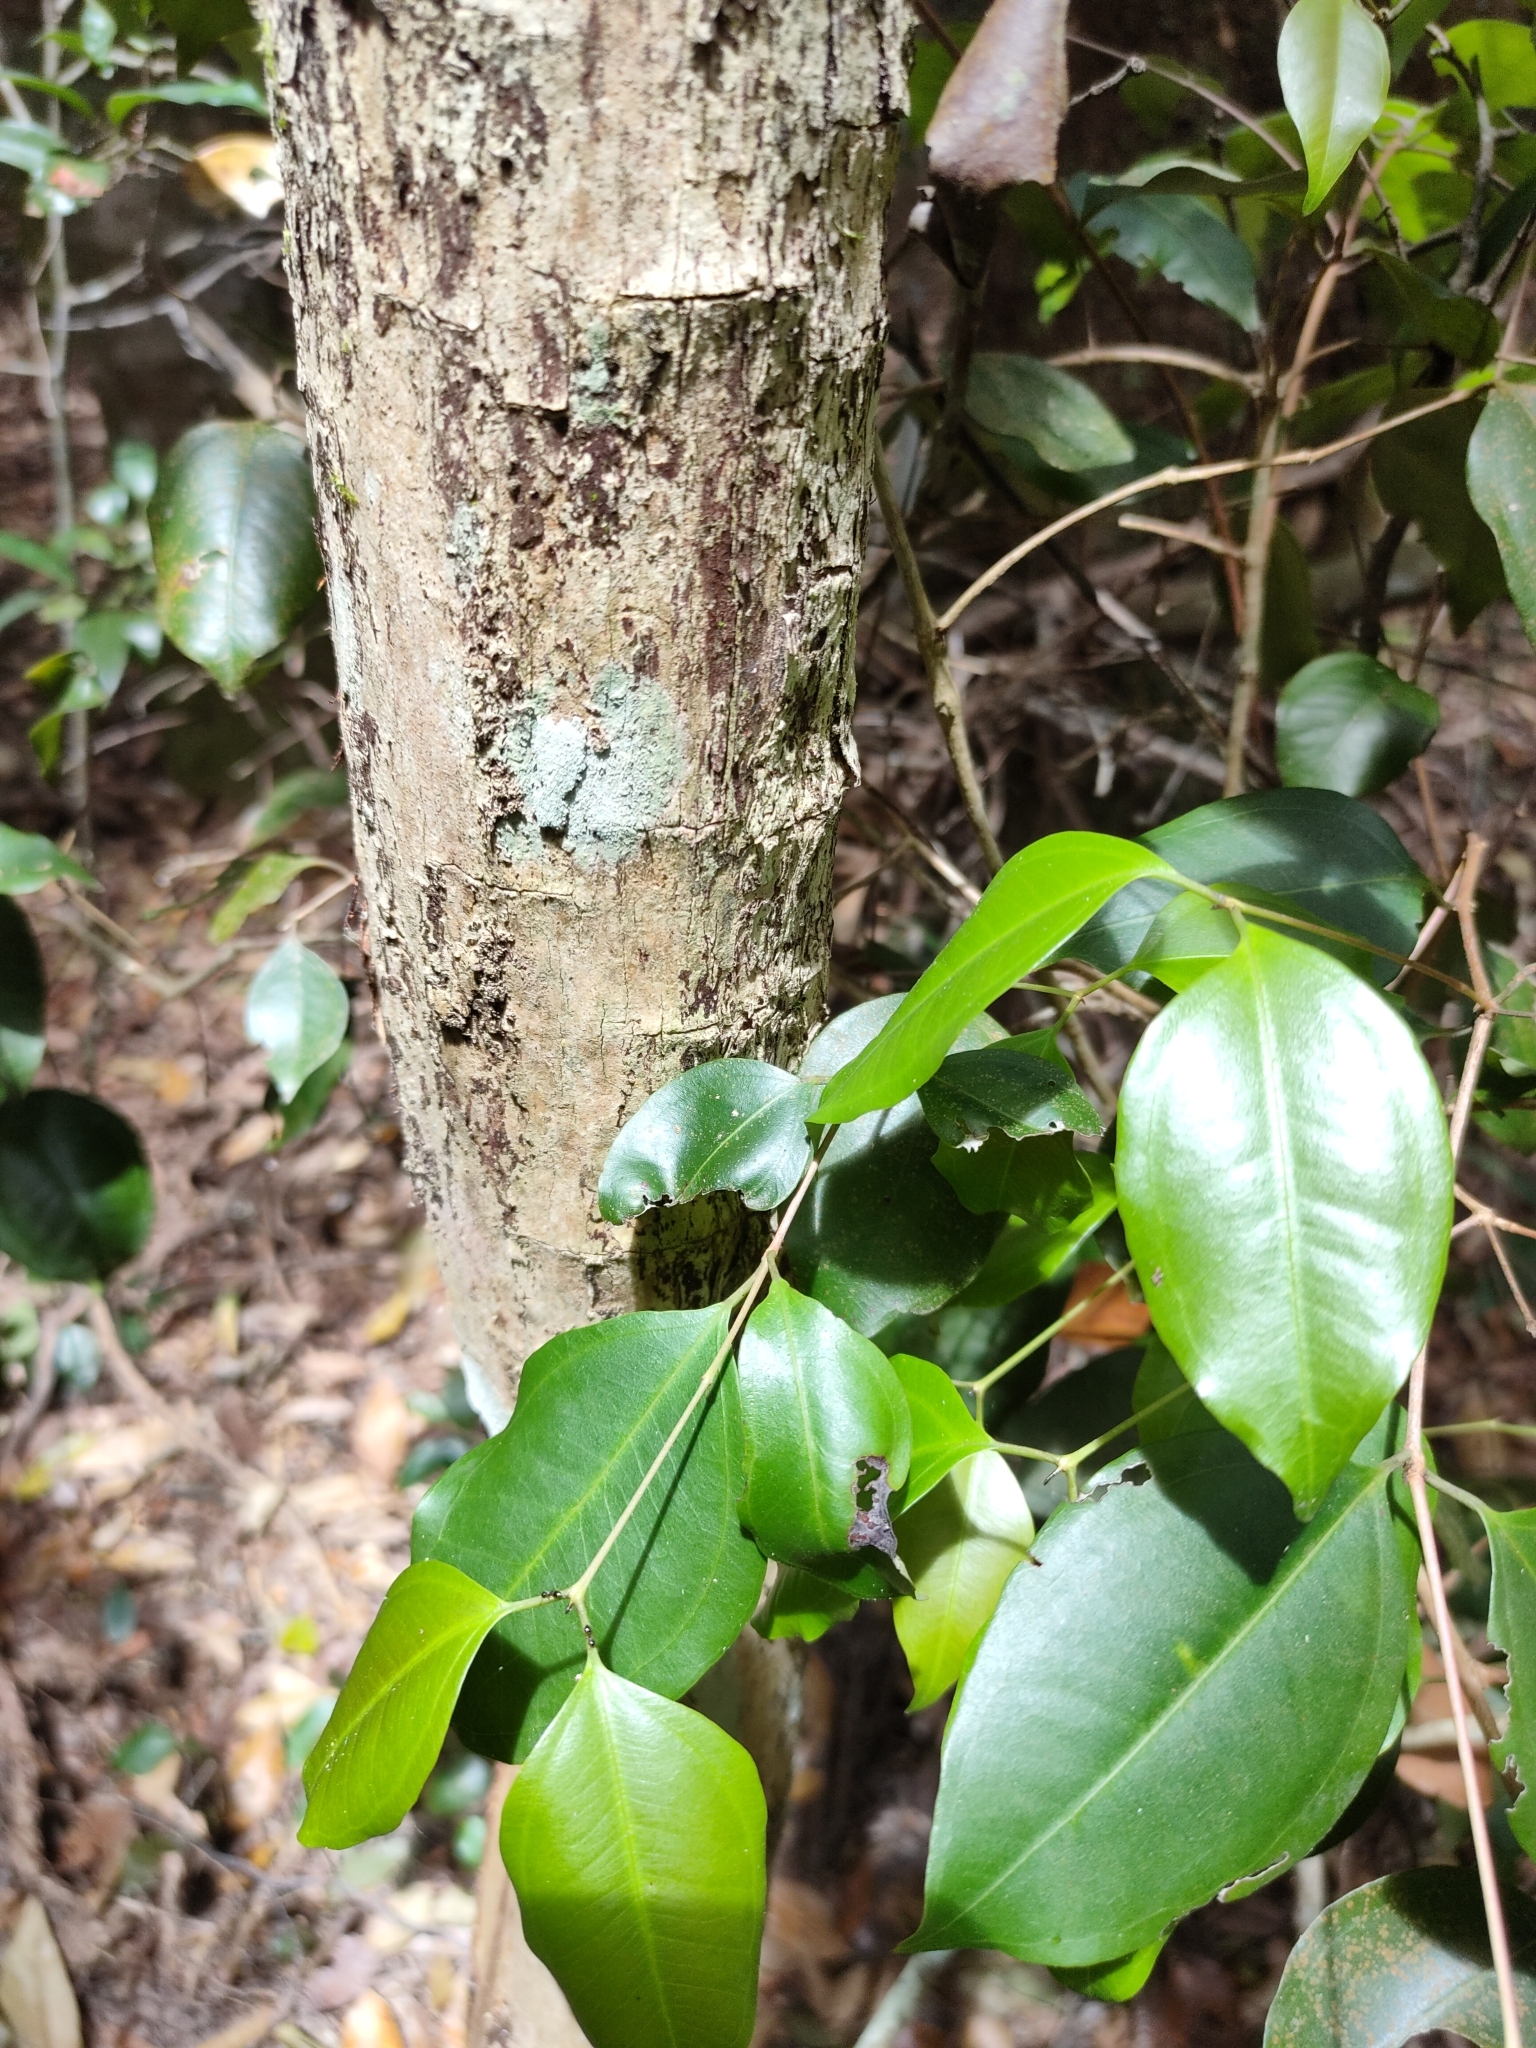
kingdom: Plantae
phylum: Tracheophyta
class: Magnoliopsida
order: Myrtales
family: Myrtaceae
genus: Rhodamnia
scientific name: Rhodamnia acuminata
